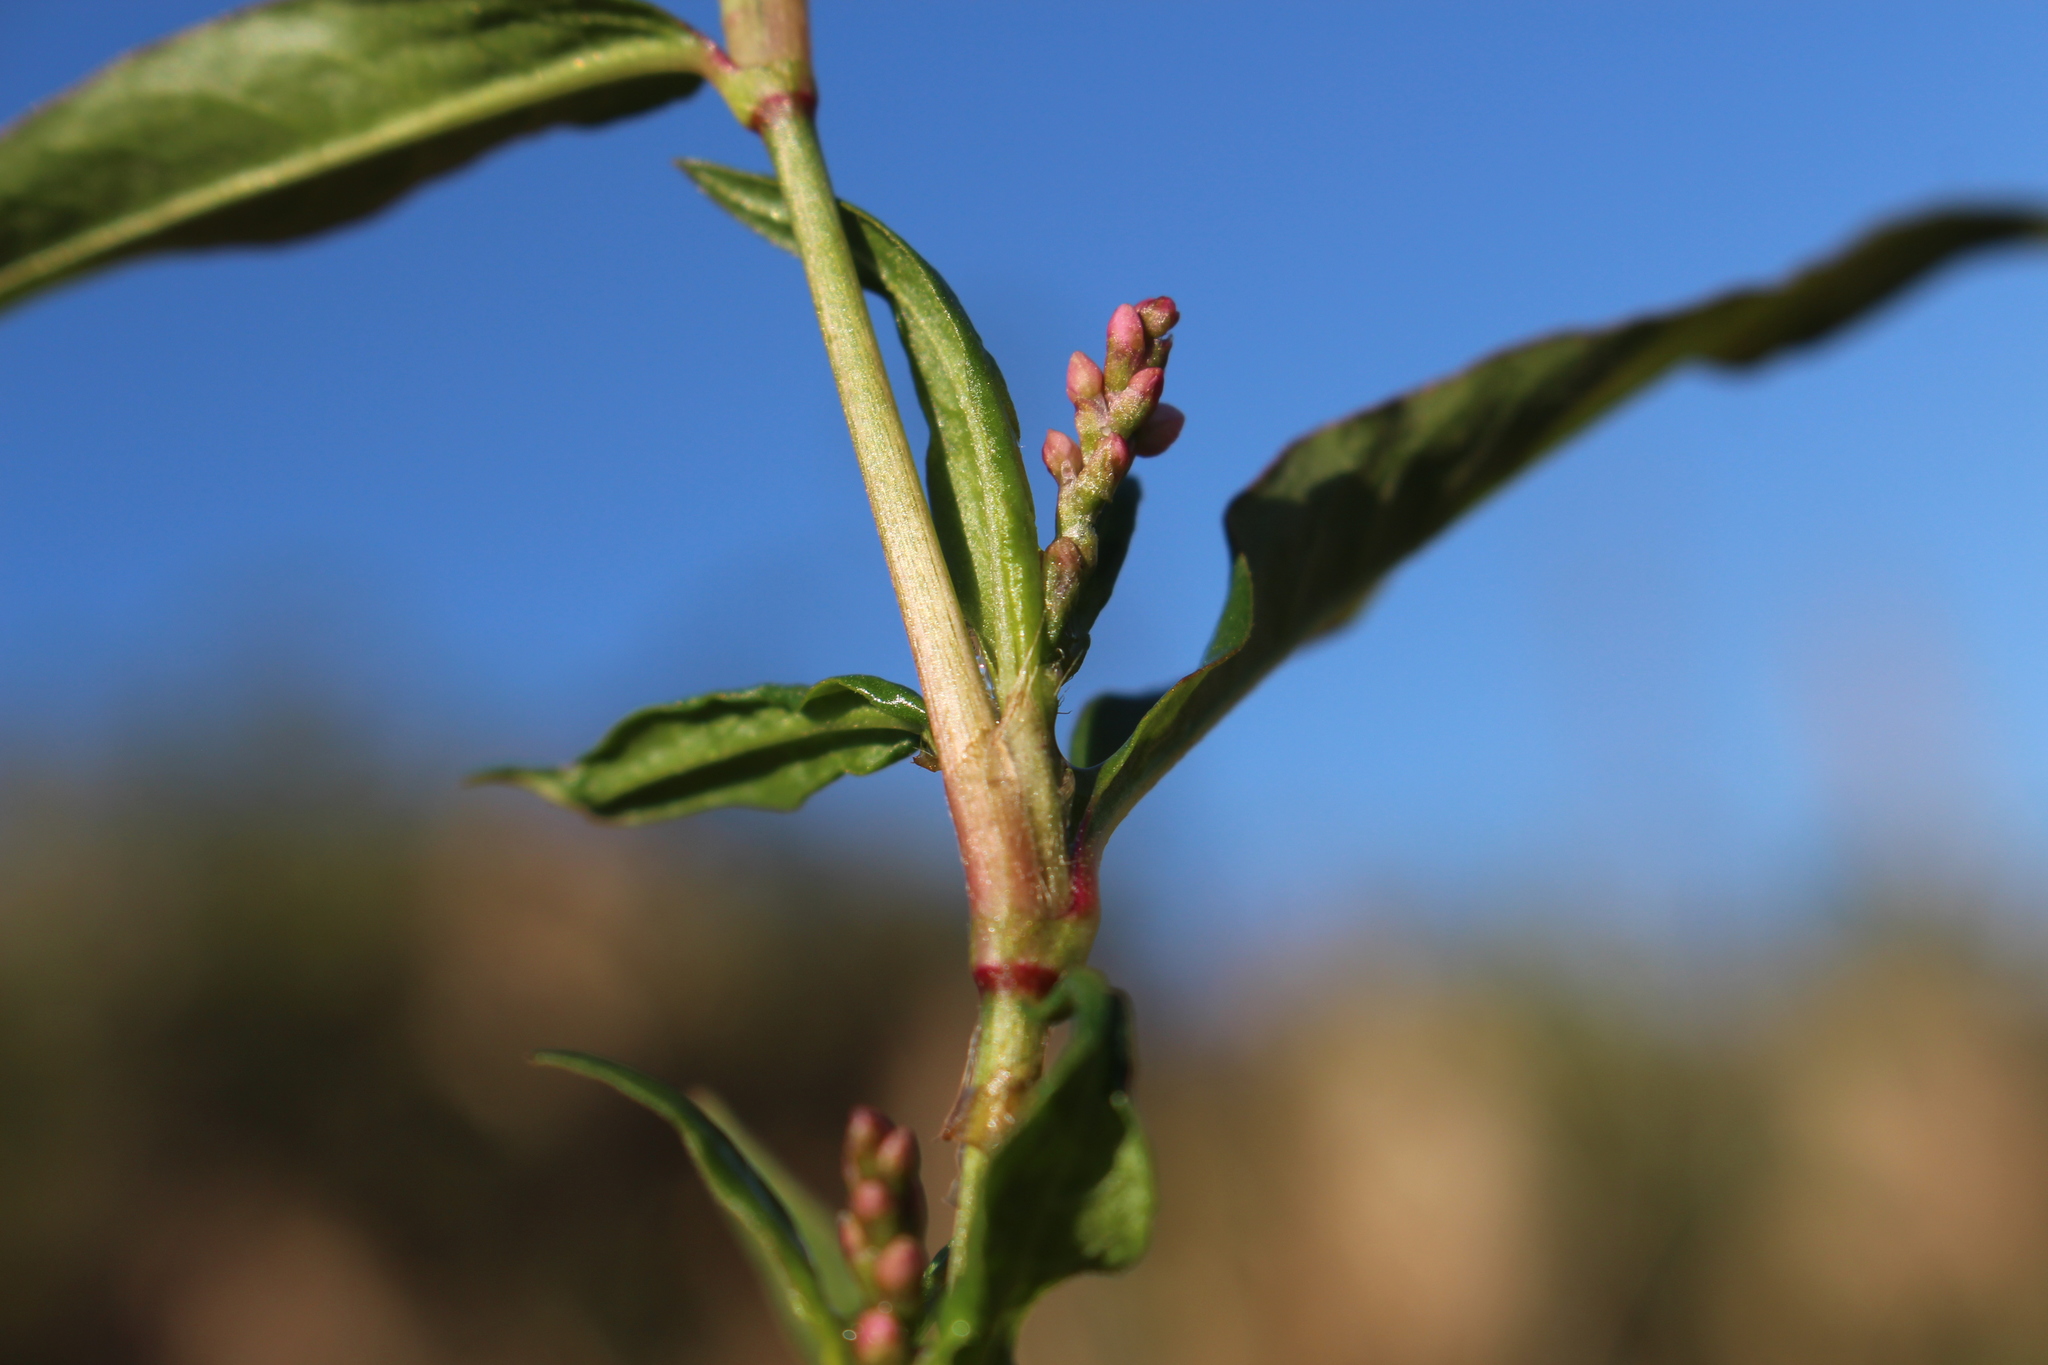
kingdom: Plantae
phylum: Tracheophyta
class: Magnoliopsida
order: Caryophyllales
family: Polygonaceae
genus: Persicaria
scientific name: Persicaria maculosa
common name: Redshank
